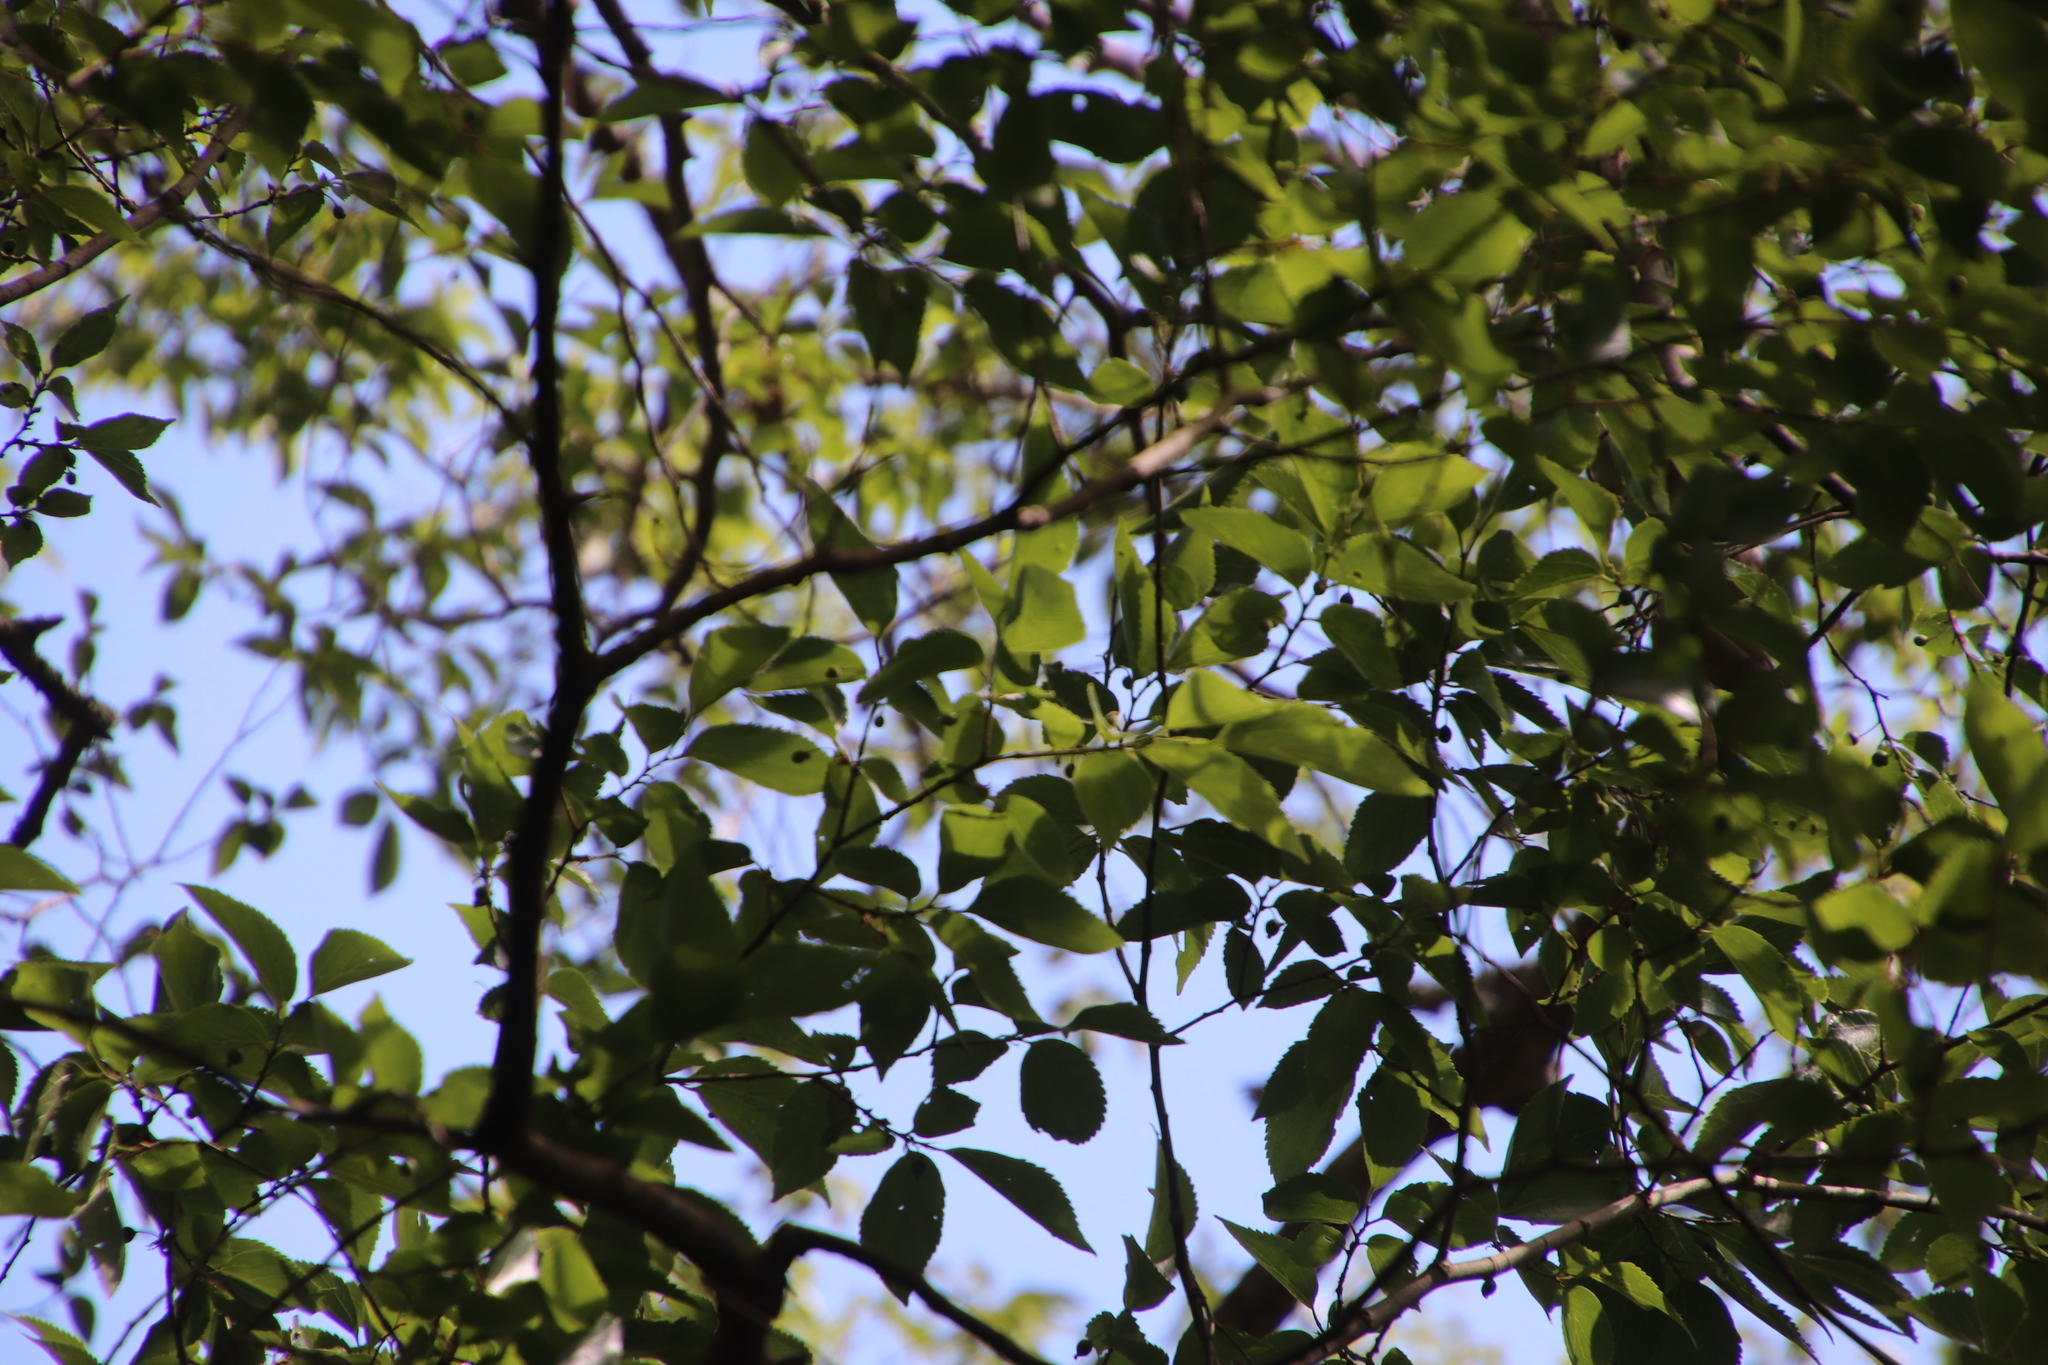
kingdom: Plantae
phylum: Tracheophyta
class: Magnoliopsida
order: Rosales
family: Cannabaceae
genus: Celtis
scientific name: Celtis africana
